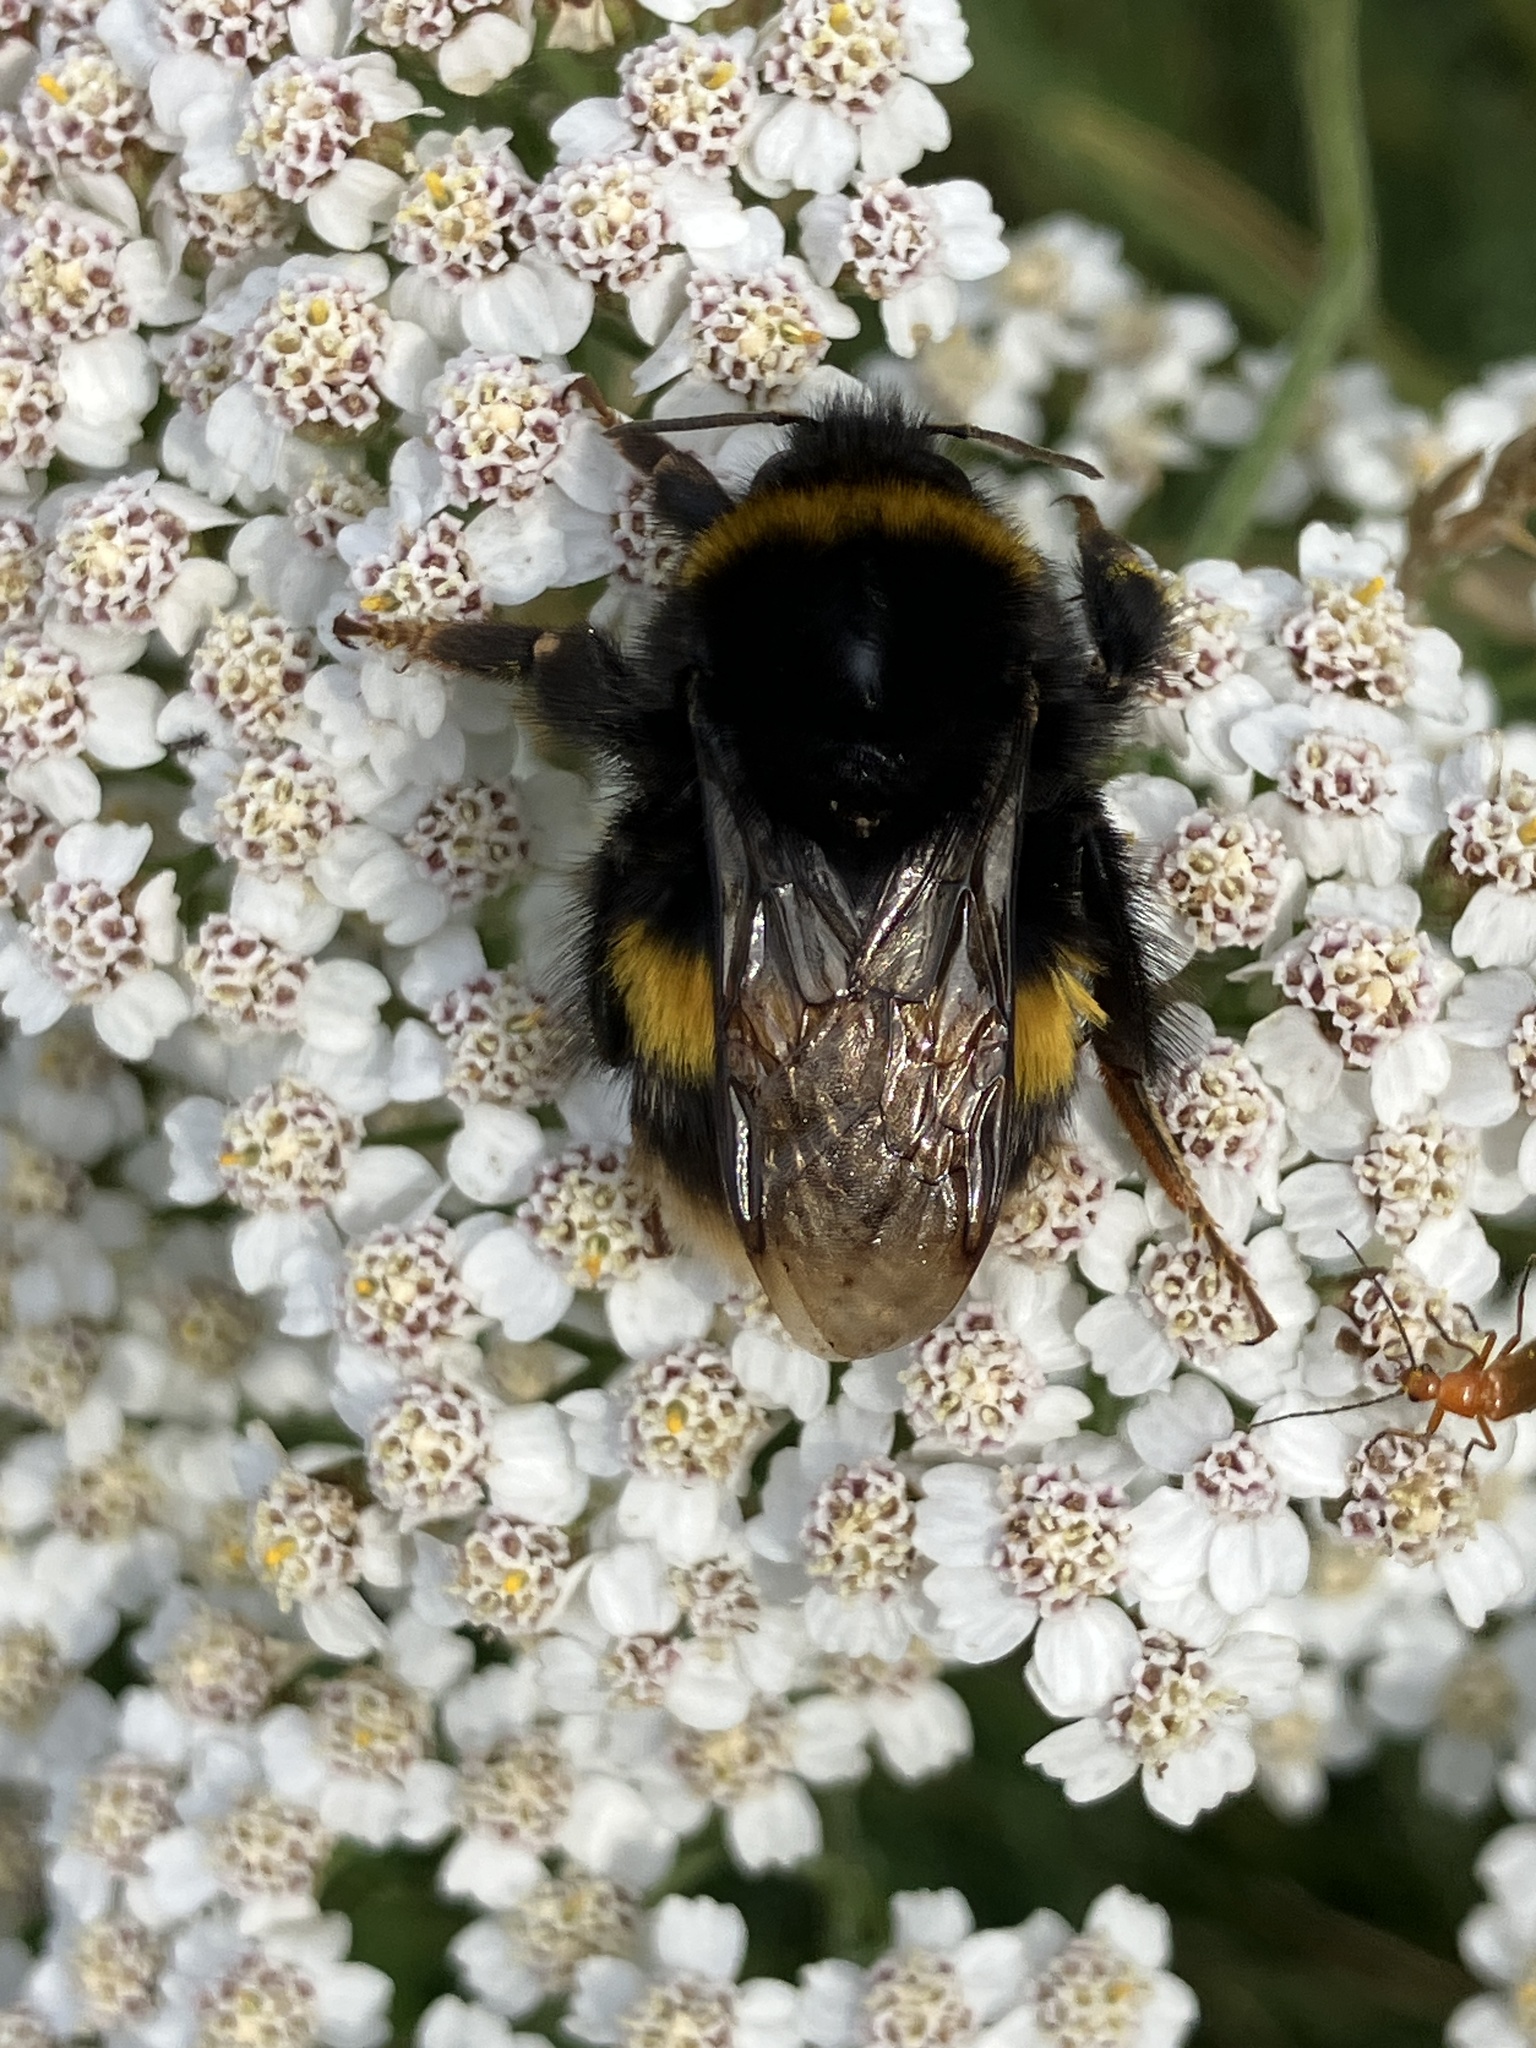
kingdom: Animalia
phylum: Arthropoda
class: Insecta
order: Hymenoptera
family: Apidae
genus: Bombus
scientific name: Bombus terrestris
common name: Buff-tailed bumblebee
